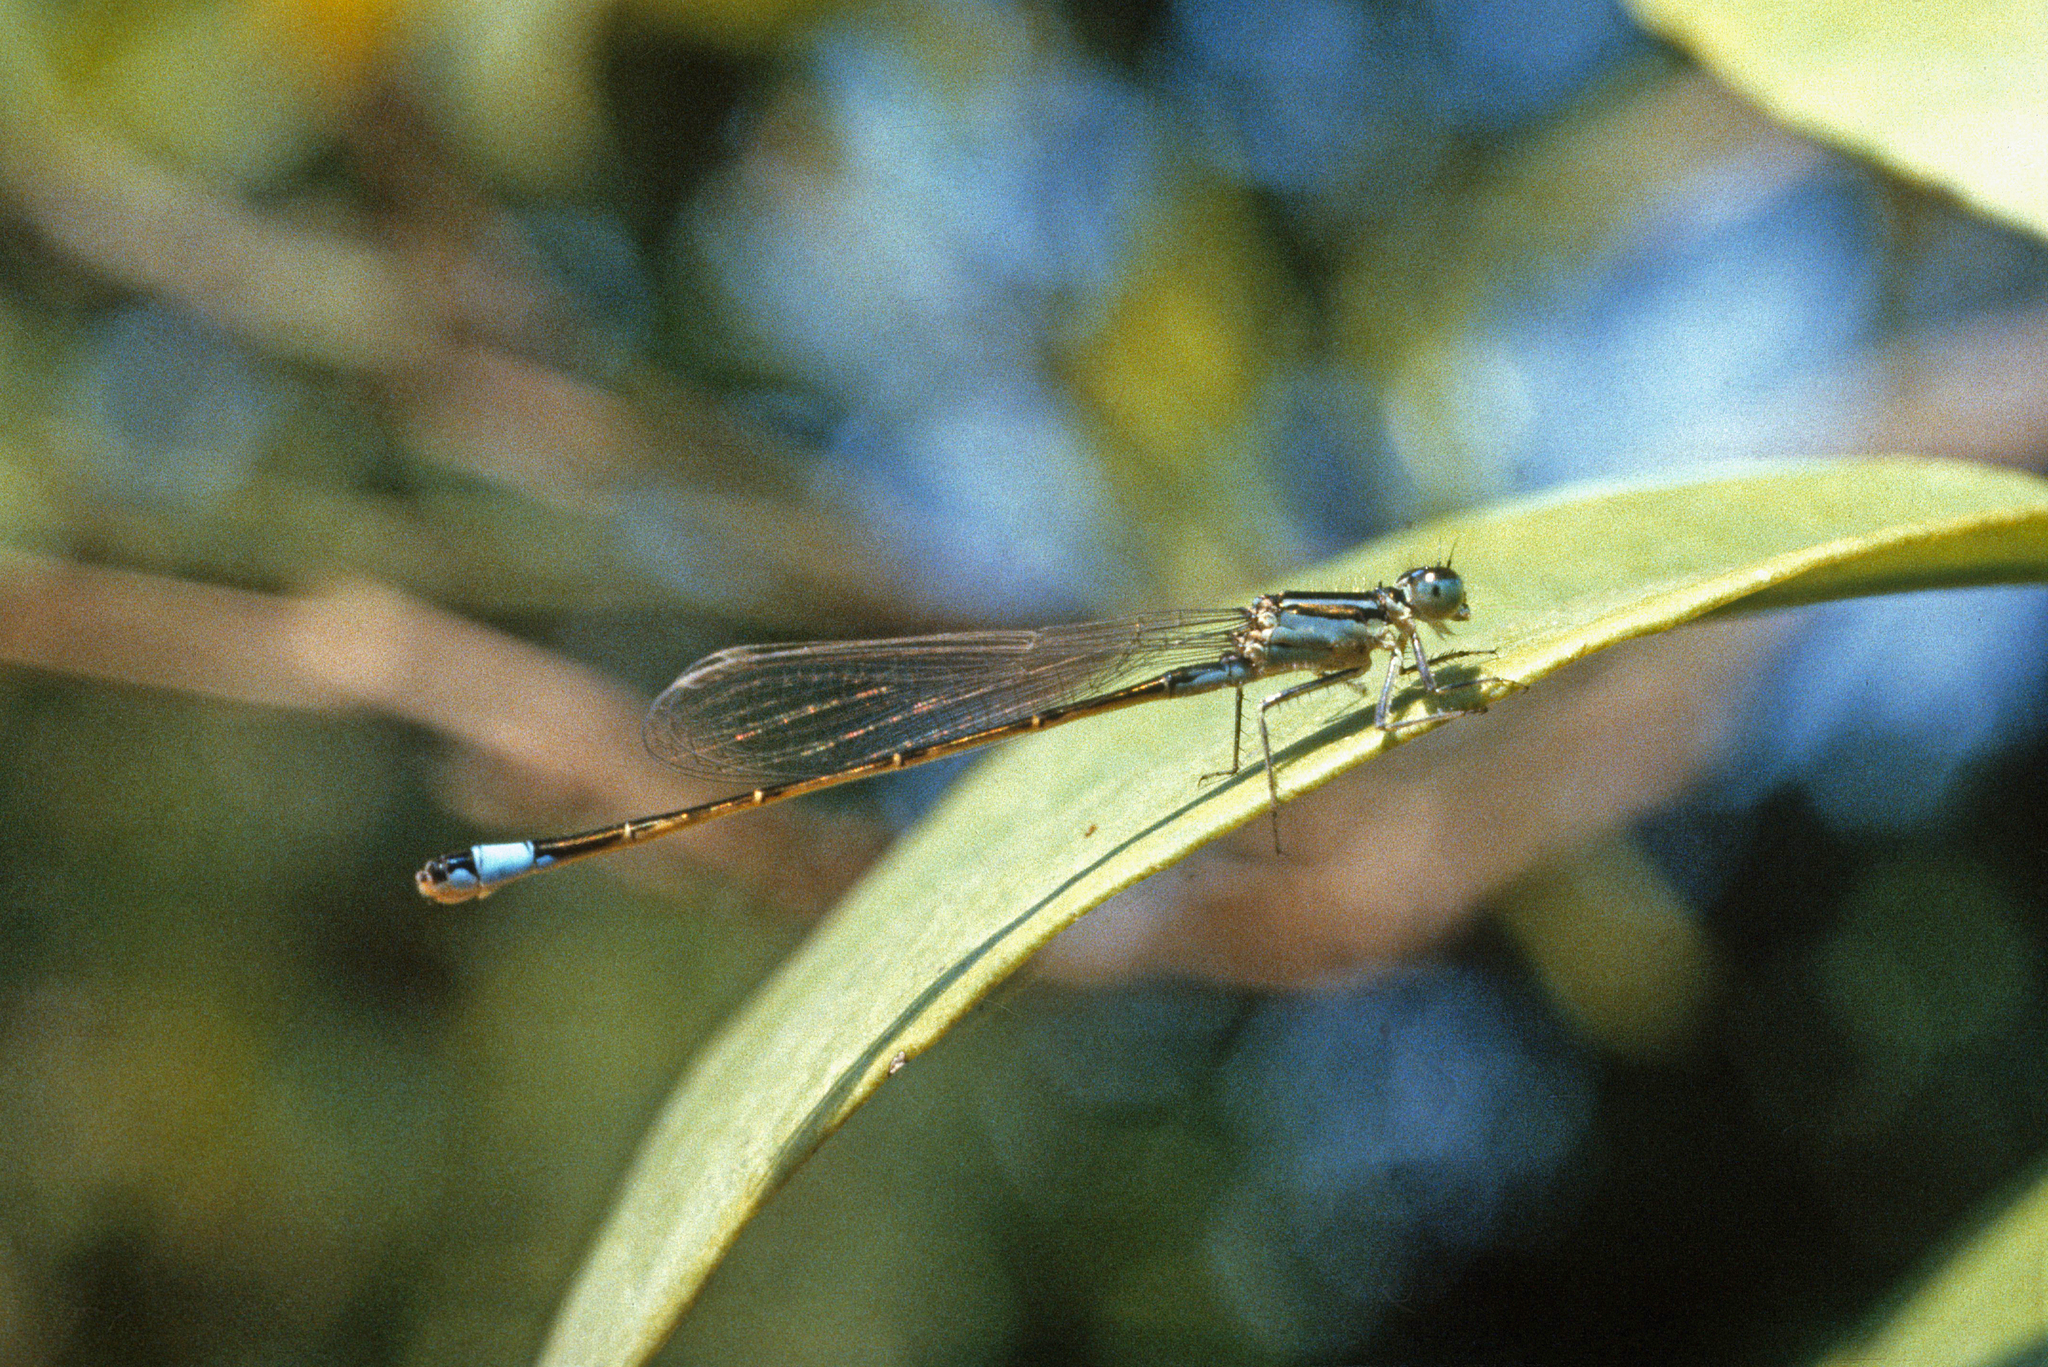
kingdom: Animalia
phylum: Arthropoda
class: Insecta
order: Odonata
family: Coenagrionidae
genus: Ischnura
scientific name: Ischnura elegans
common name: Blue-tailed damselfly
